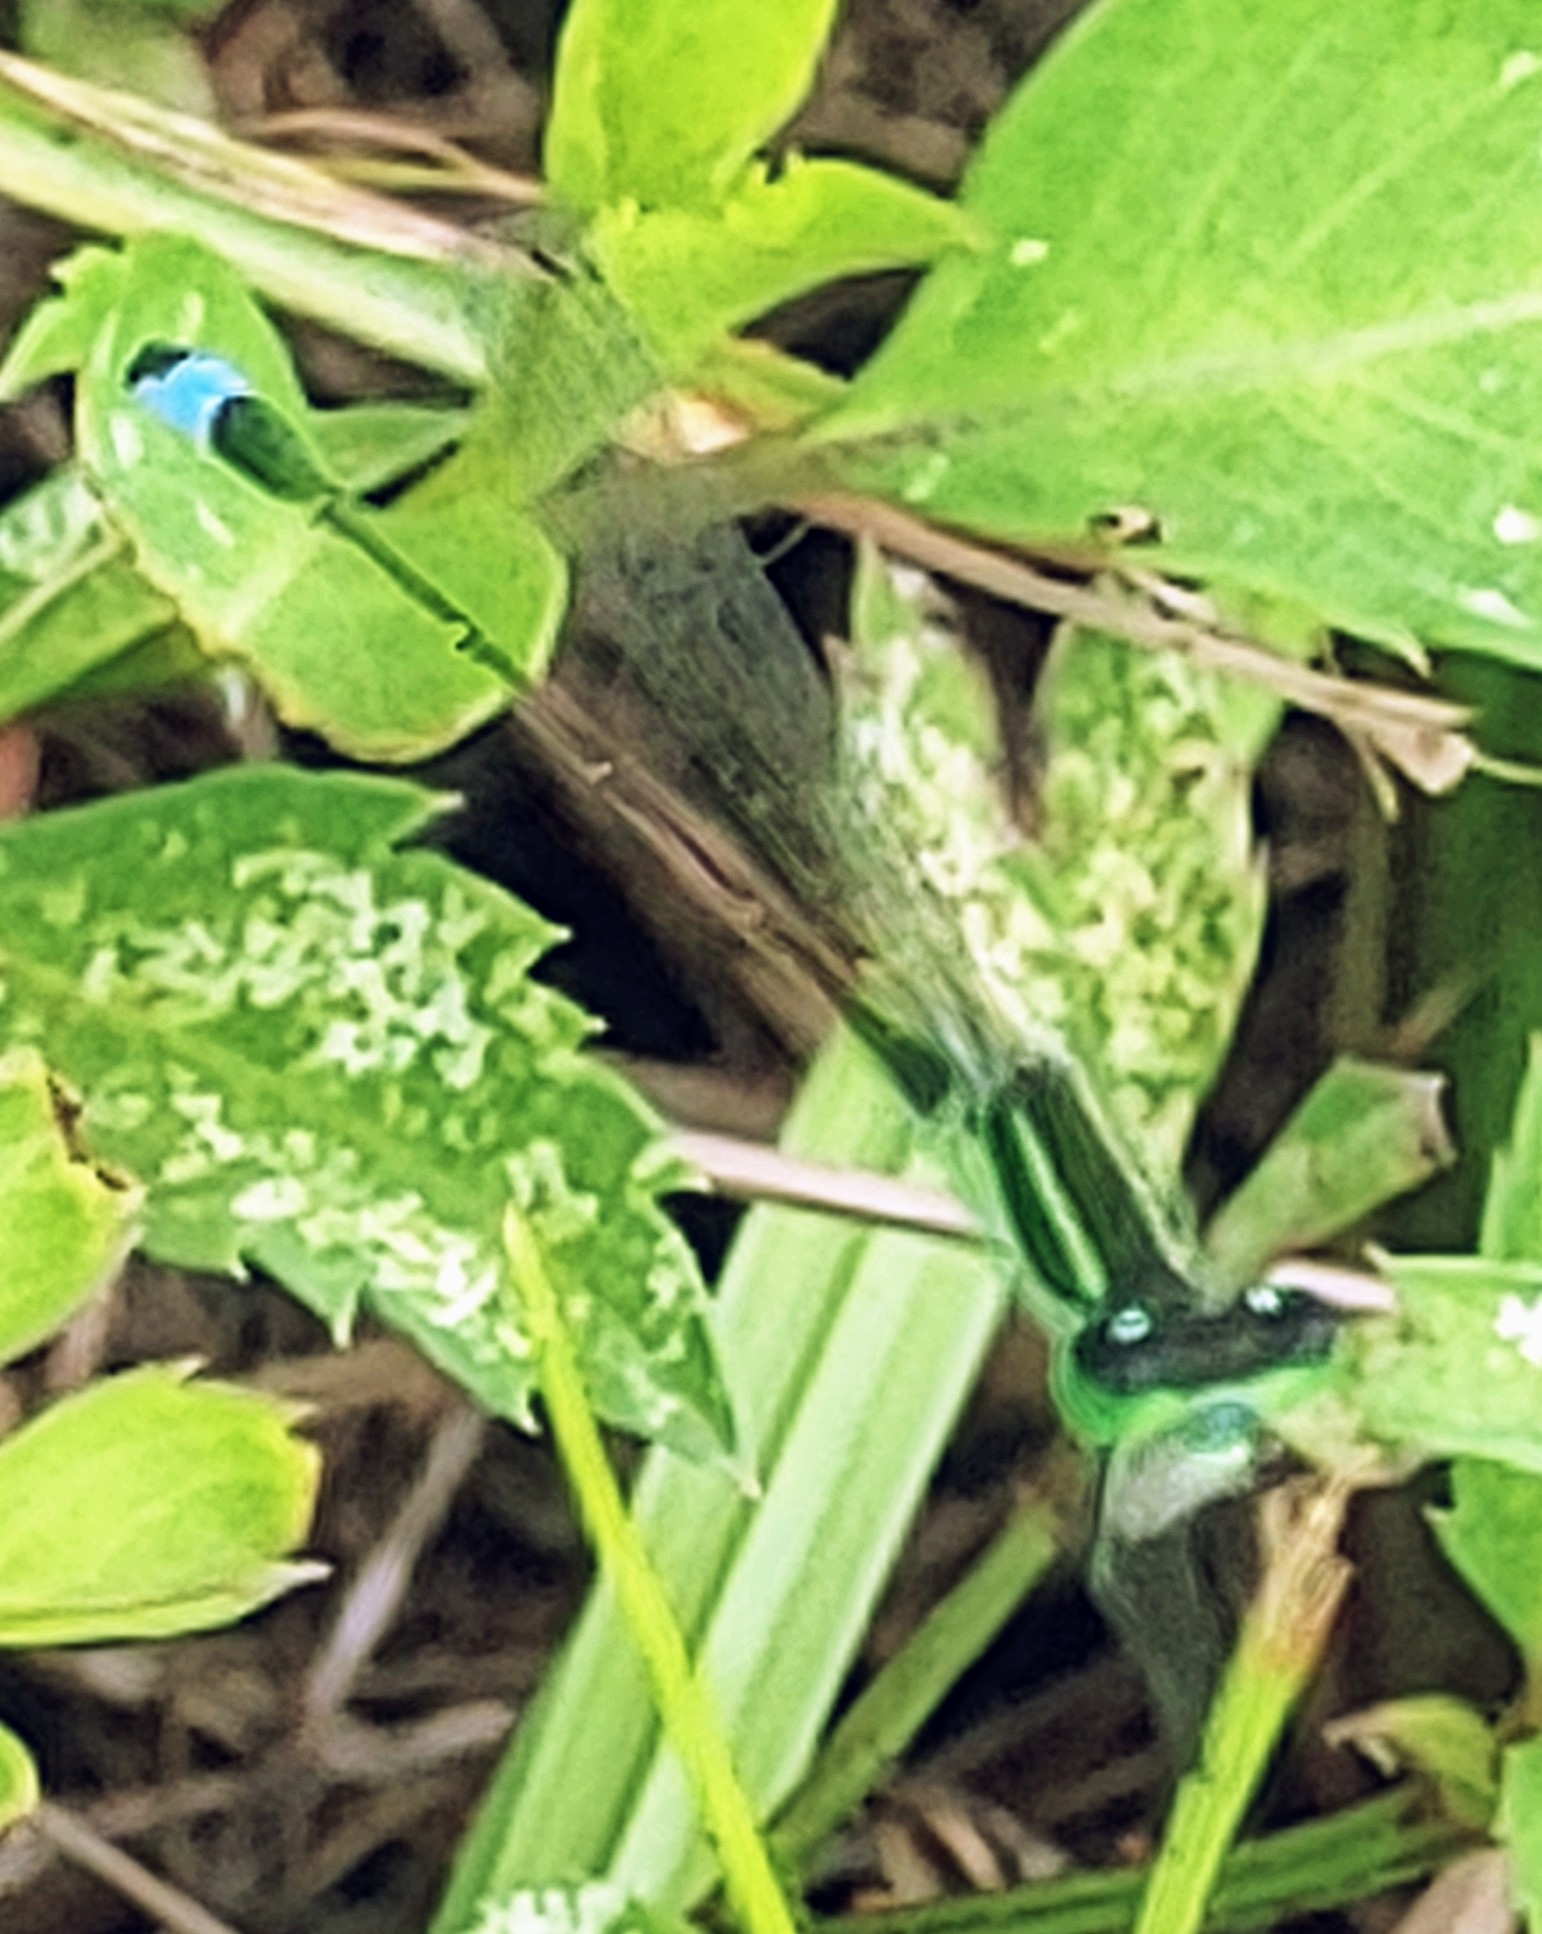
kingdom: Animalia
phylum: Arthropoda
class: Insecta
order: Odonata
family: Coenagrionidae
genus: Ischnura
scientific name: Ischnura ramburii
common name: Rambur's forktail
